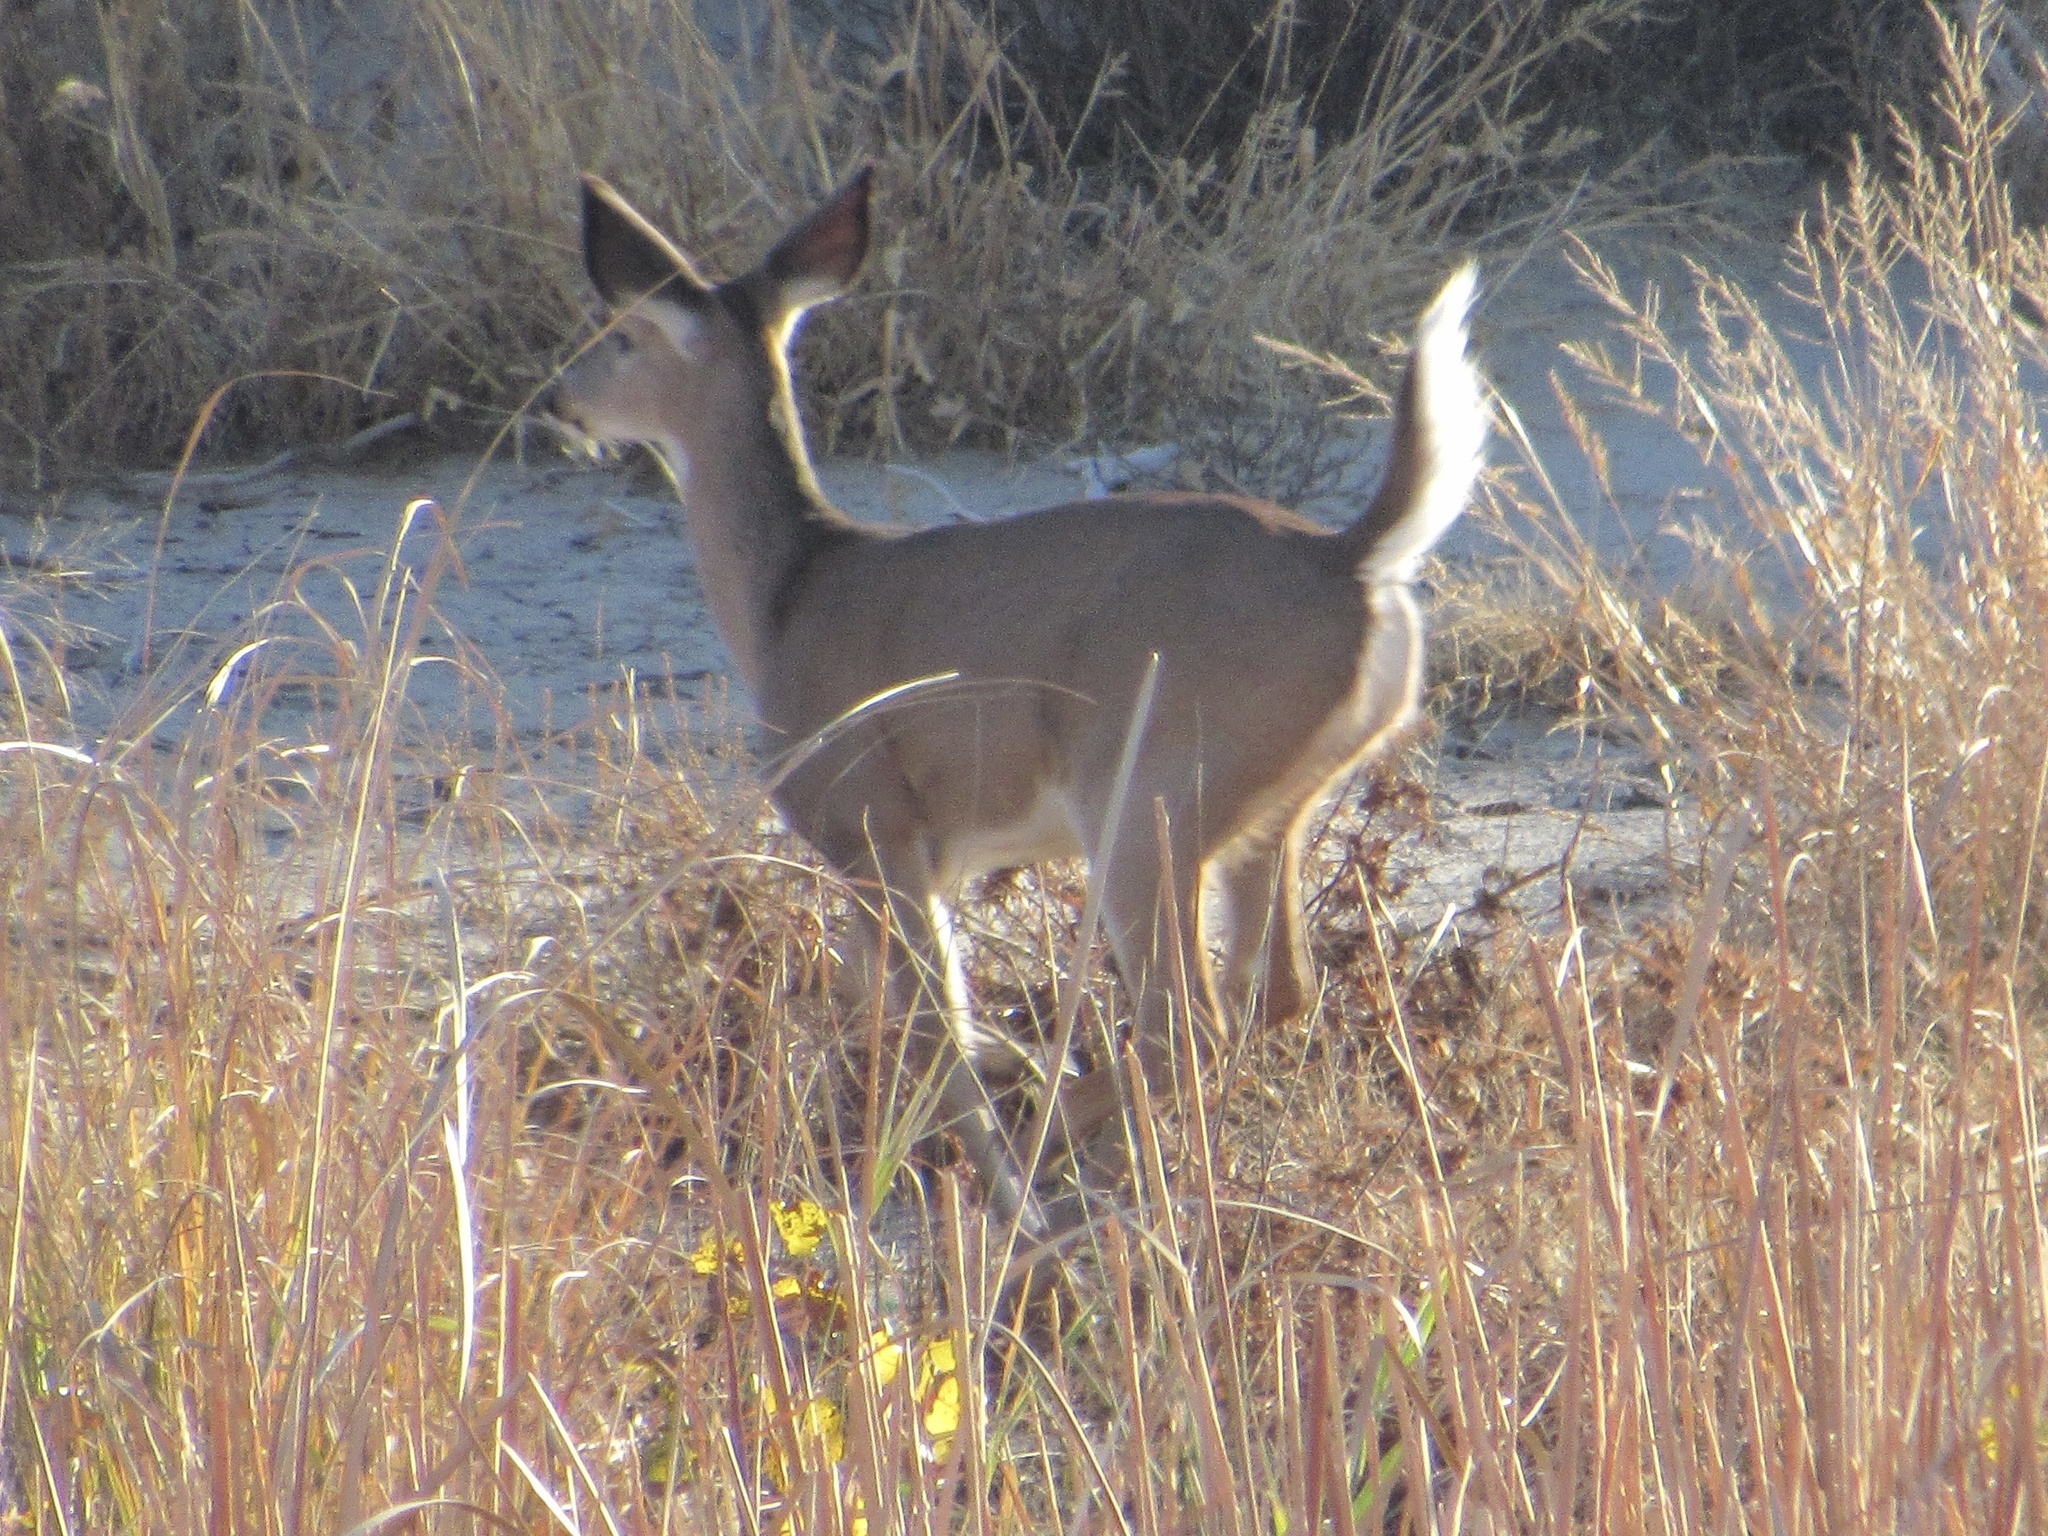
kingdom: Animalia
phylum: Chordata
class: Mammalia
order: Artiodactyla
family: Cervidae
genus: Odocoileus
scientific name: Odocoileus virginianus
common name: White-tailed deer
